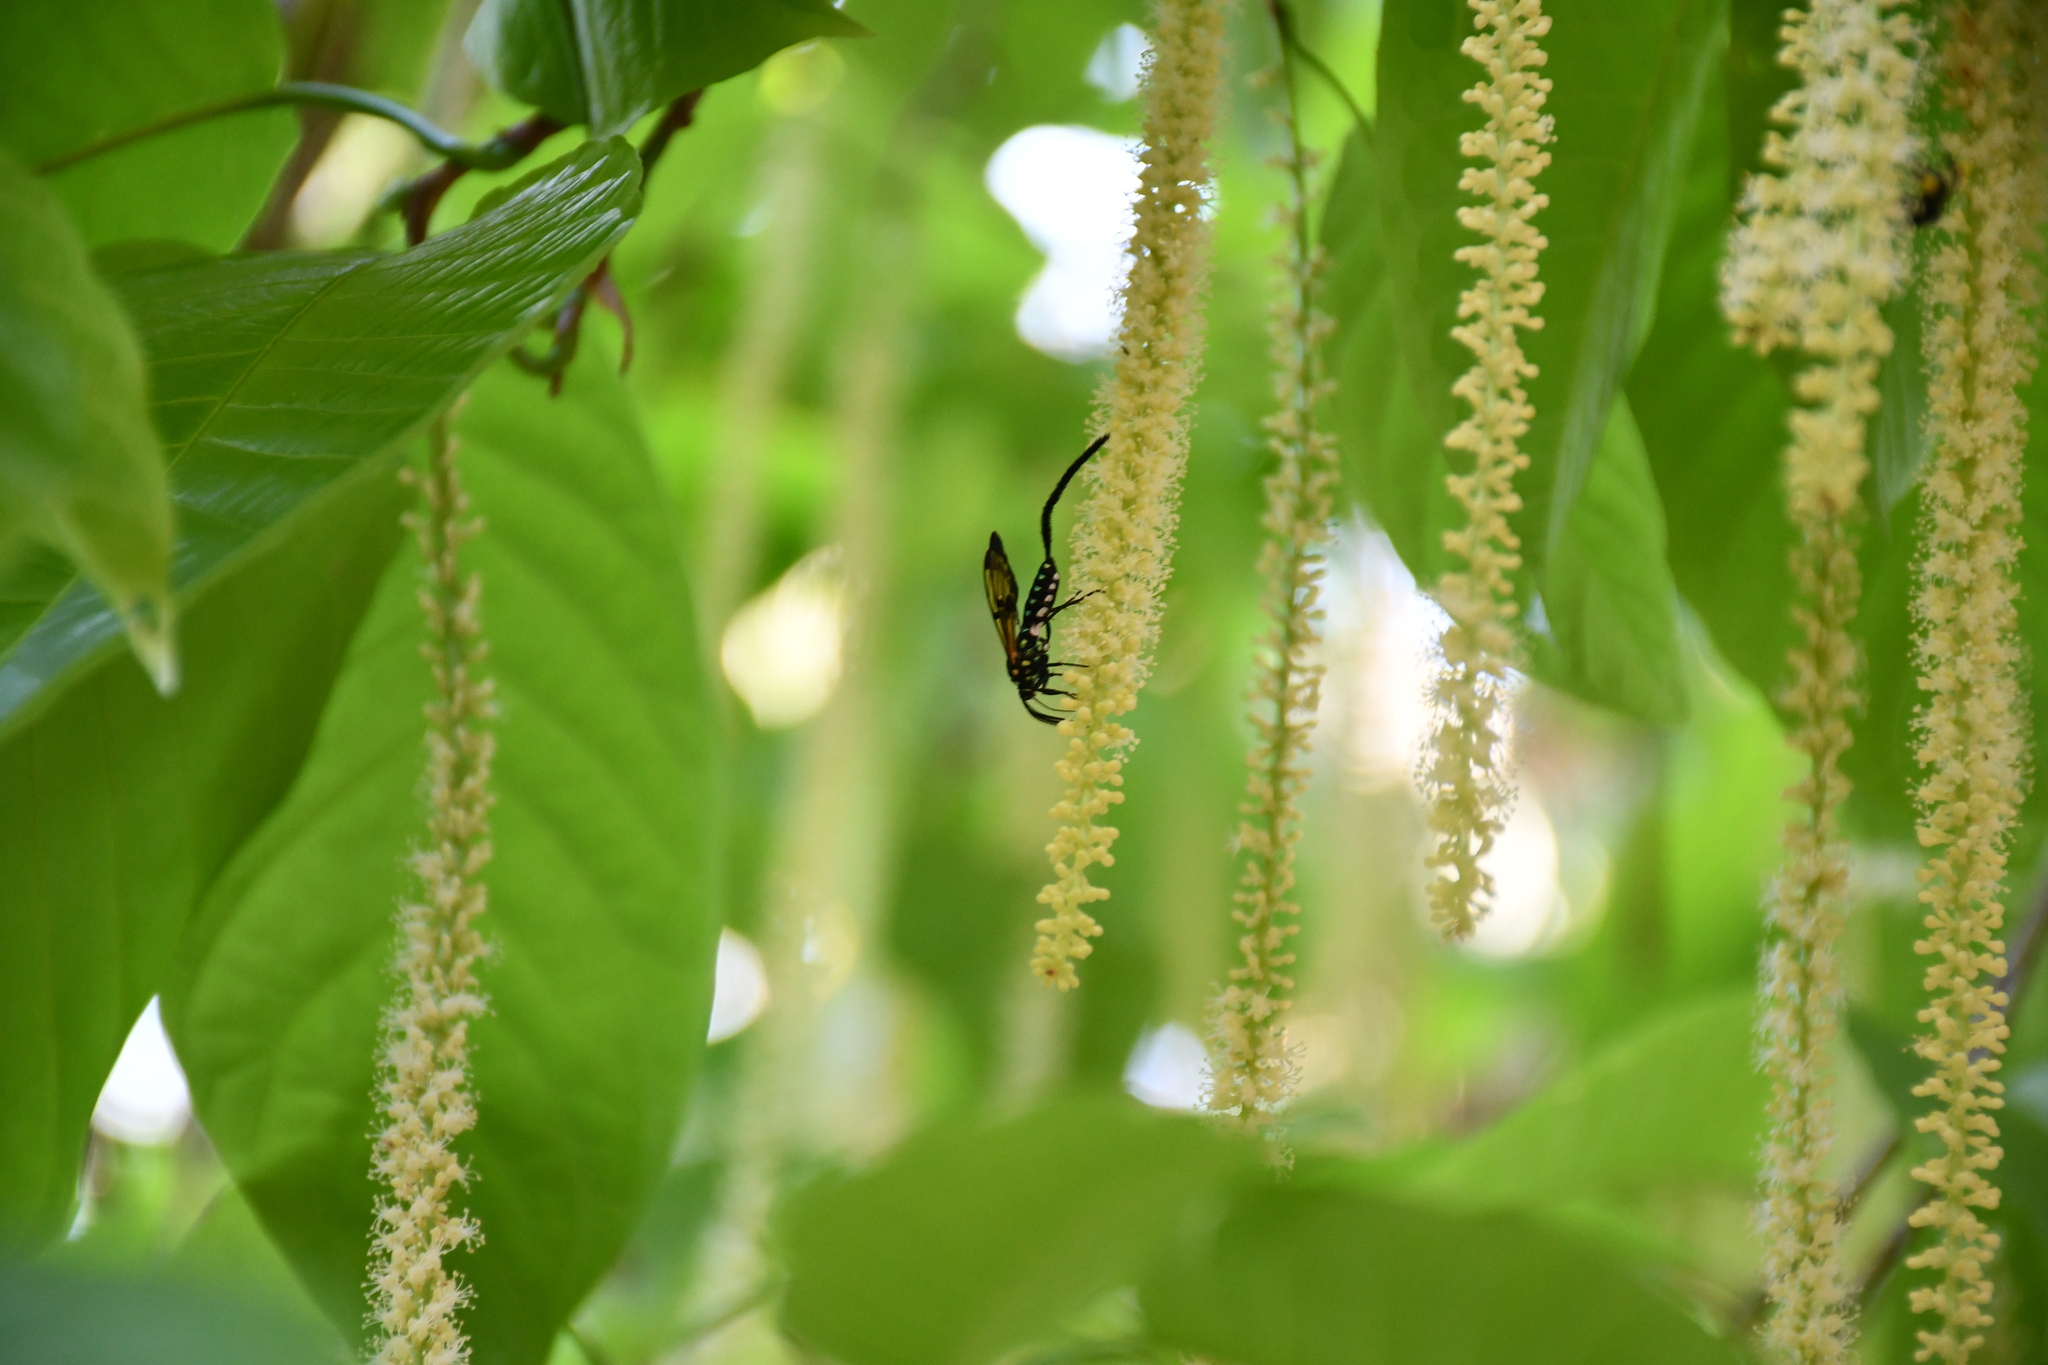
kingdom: Animalia
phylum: Arthropoda
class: Insecta
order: Lepidoptera
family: Erebidae
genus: Trichura
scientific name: Trichura cerberus
